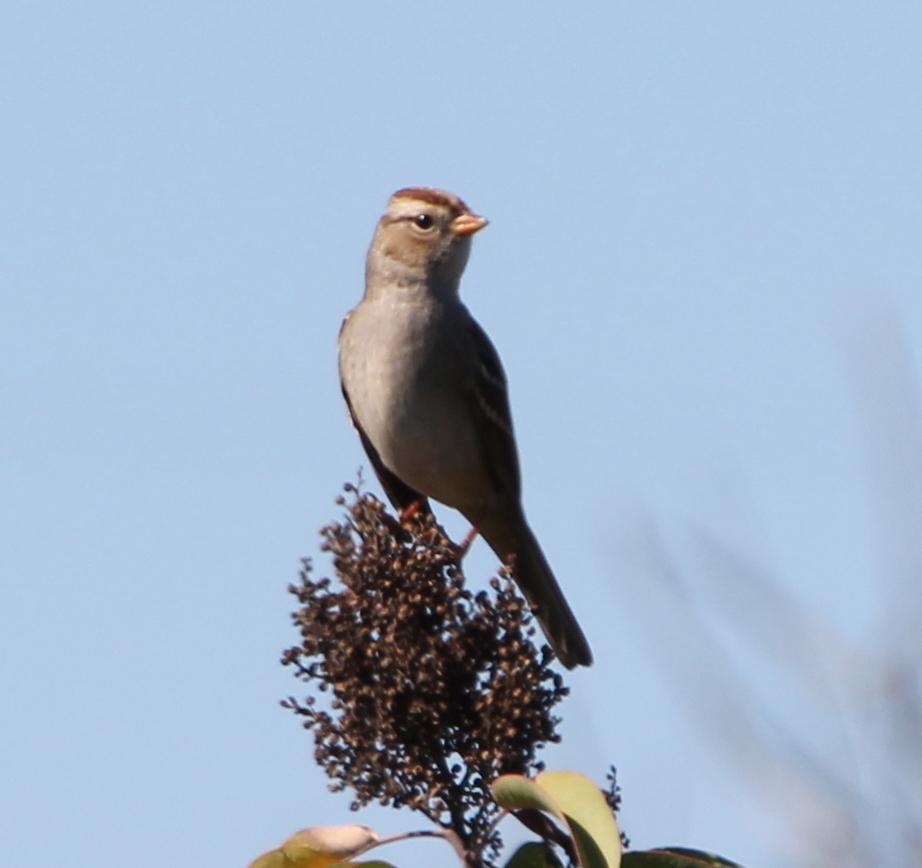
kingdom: Animalia
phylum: Chordata
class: Aves
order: Passeriformes
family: Passerellidae
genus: Zonotrichia
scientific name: Zonotrichia leucophrys
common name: White-crowned sparrow
